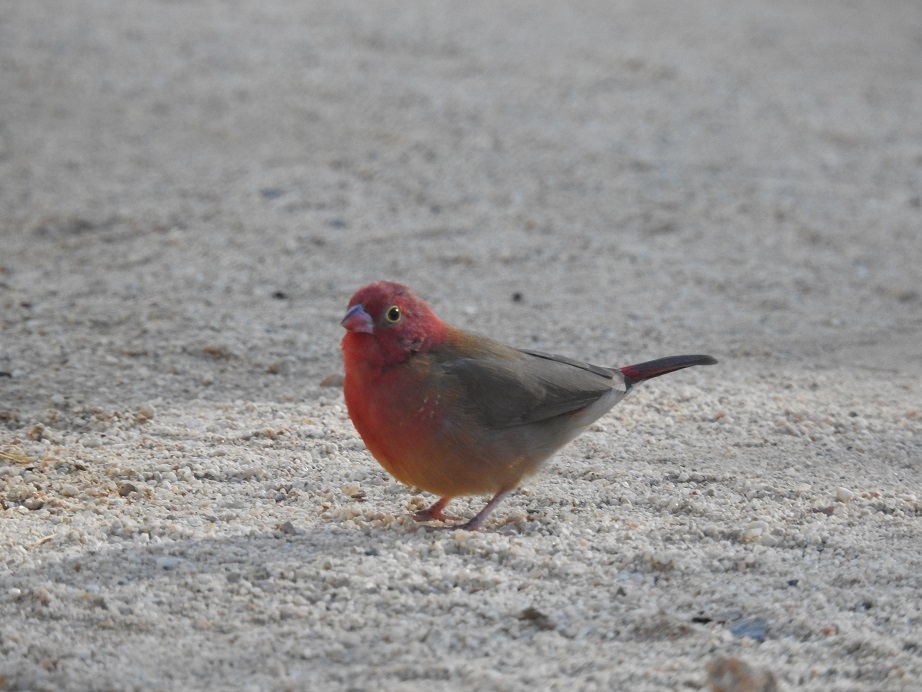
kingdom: Animalia
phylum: Chordata
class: Aves
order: Passeriformes
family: Estrildidae
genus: Lagonosticta
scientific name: Lagonosticta senegala
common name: Red-billed firefinch
